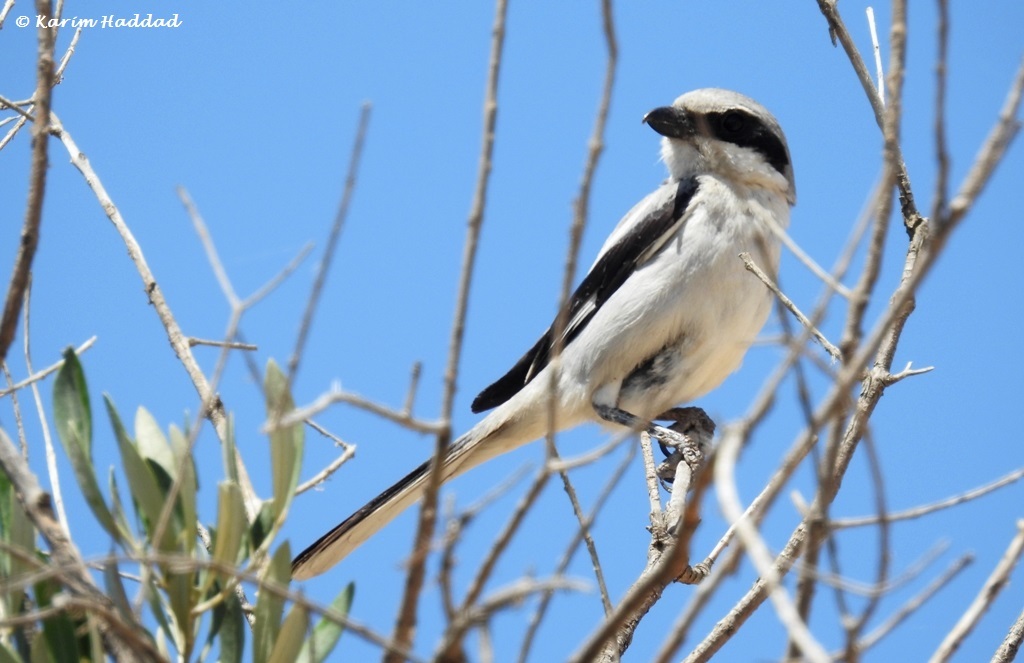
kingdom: Animalia
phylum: Chordata
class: Aves
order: Passeriformes
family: Laniidae
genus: Lanius
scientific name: Lanius excubitor
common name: Great grey shrike
